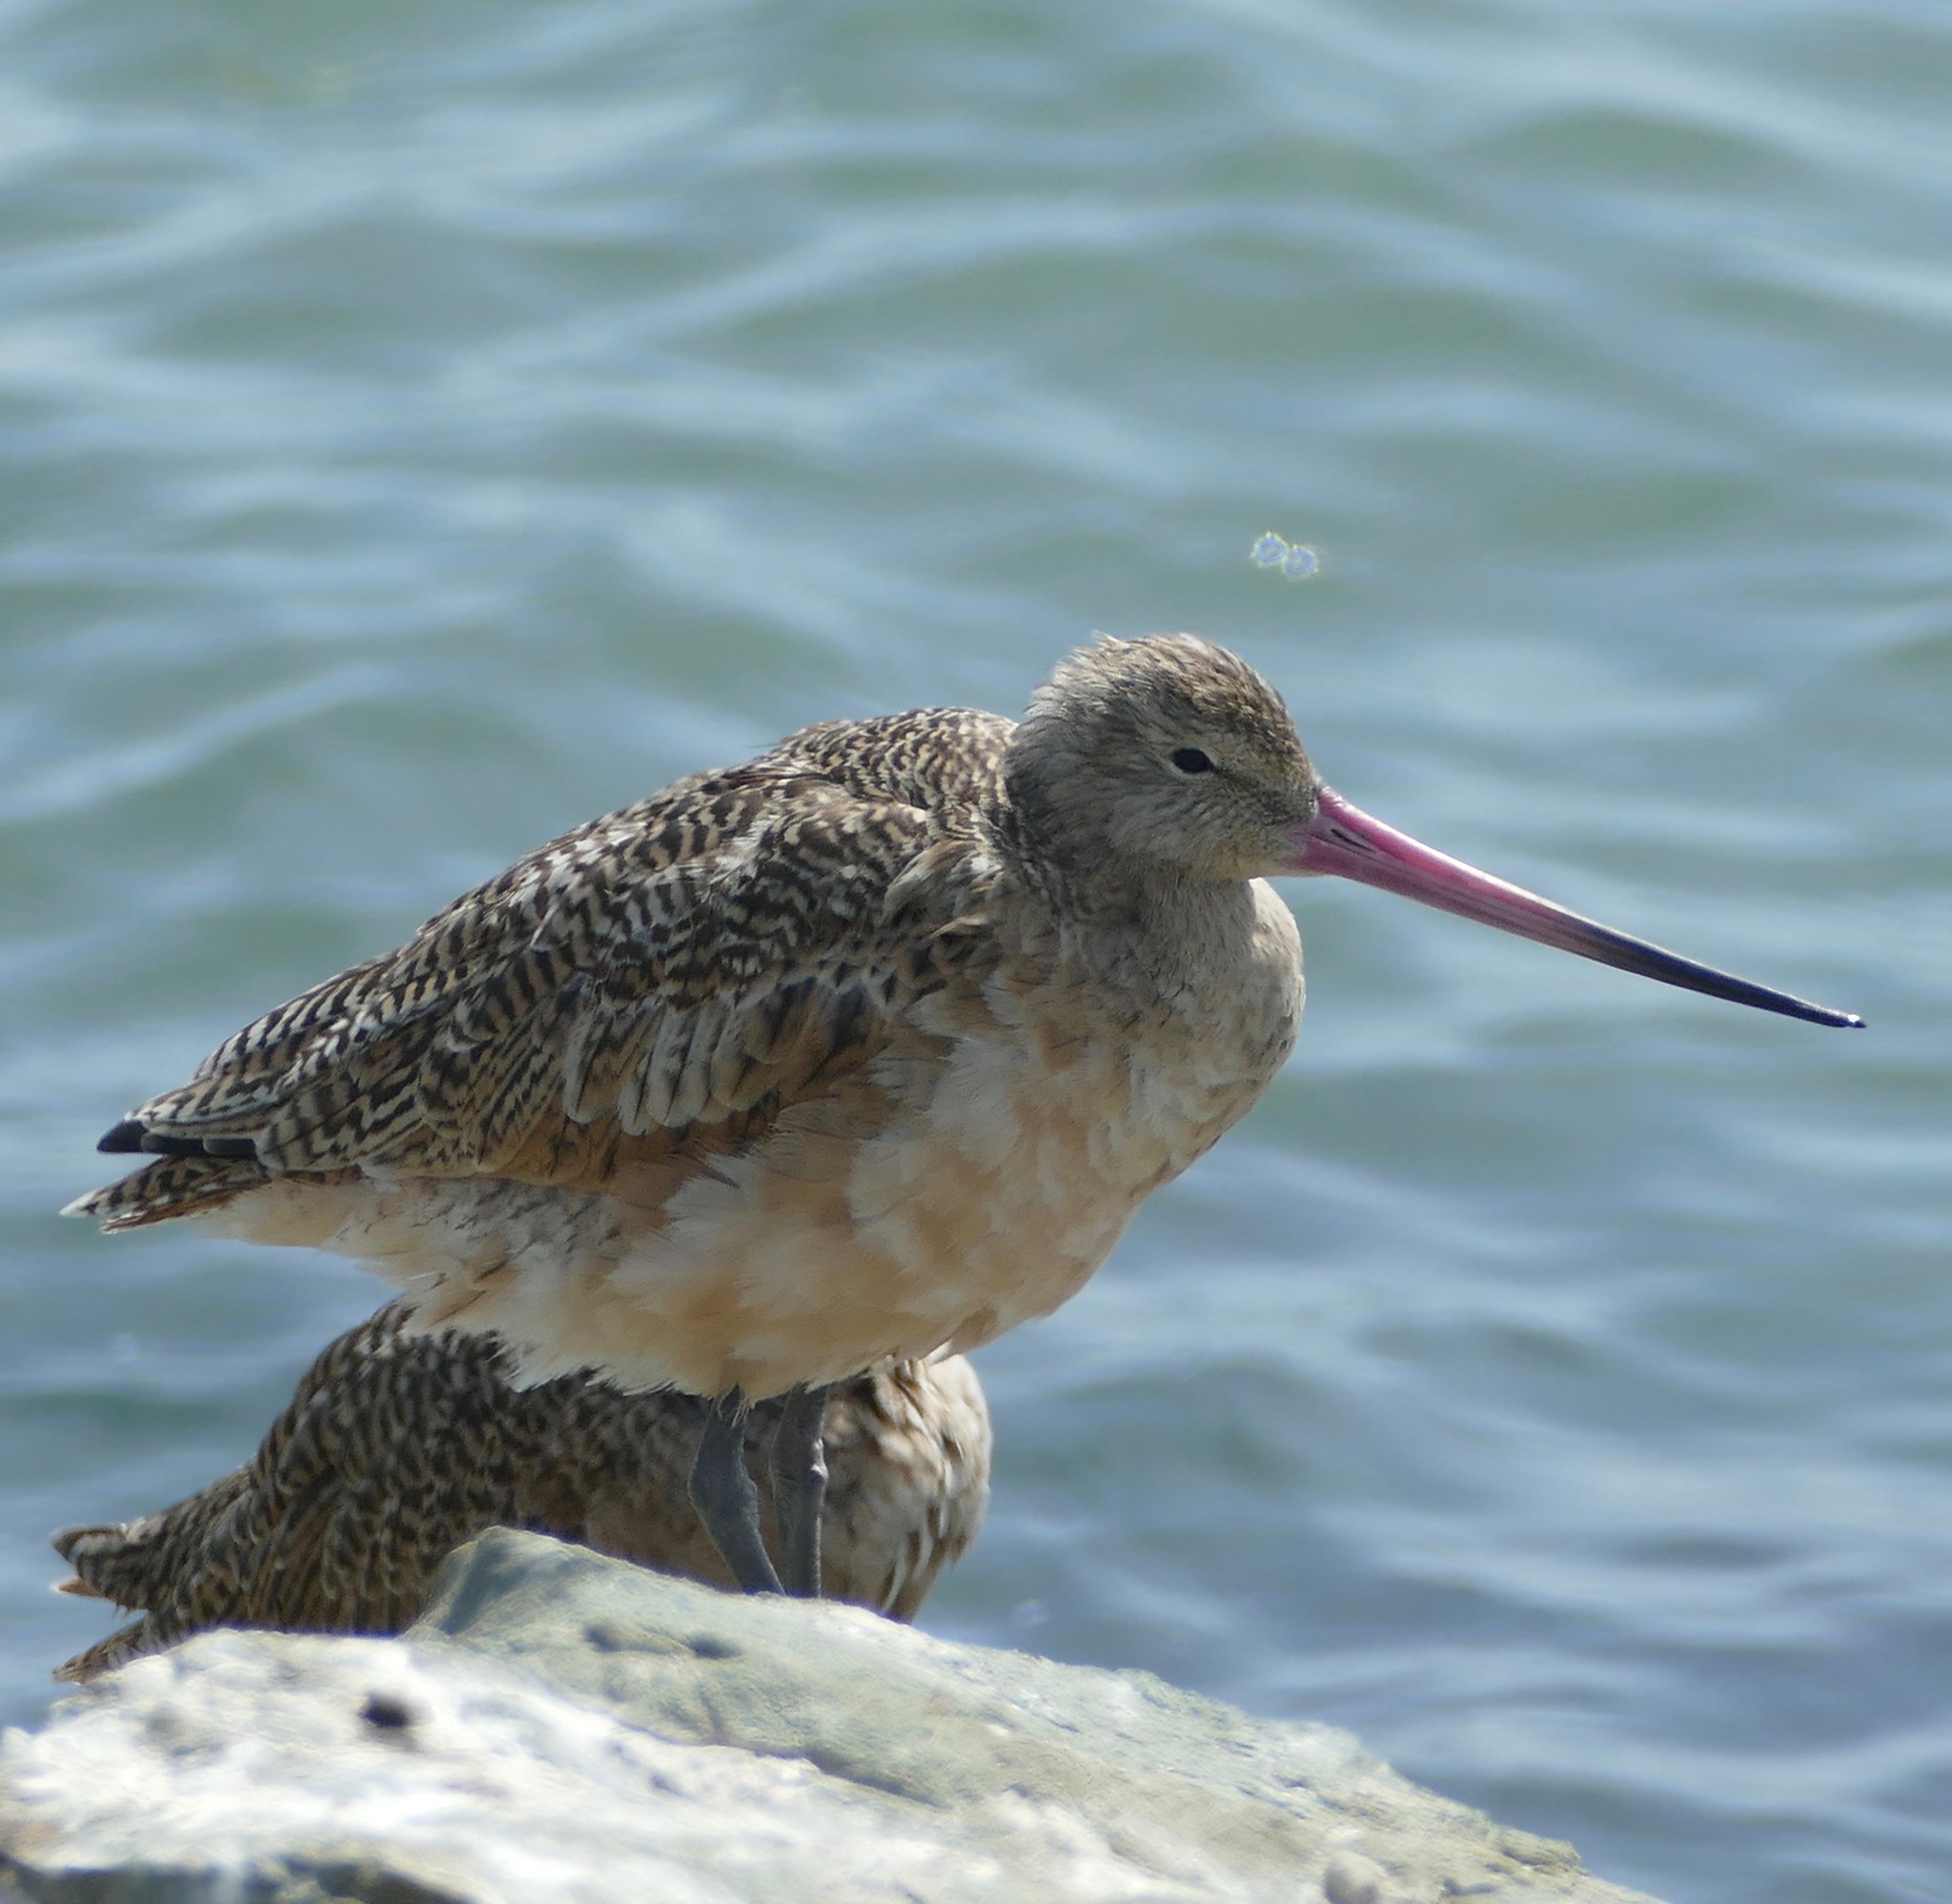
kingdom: Animalia
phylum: Chordata
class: Aves
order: Charadriiformes
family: Scolopacidae
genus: Limosa
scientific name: Limosa fedoa
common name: Marbled godwit
